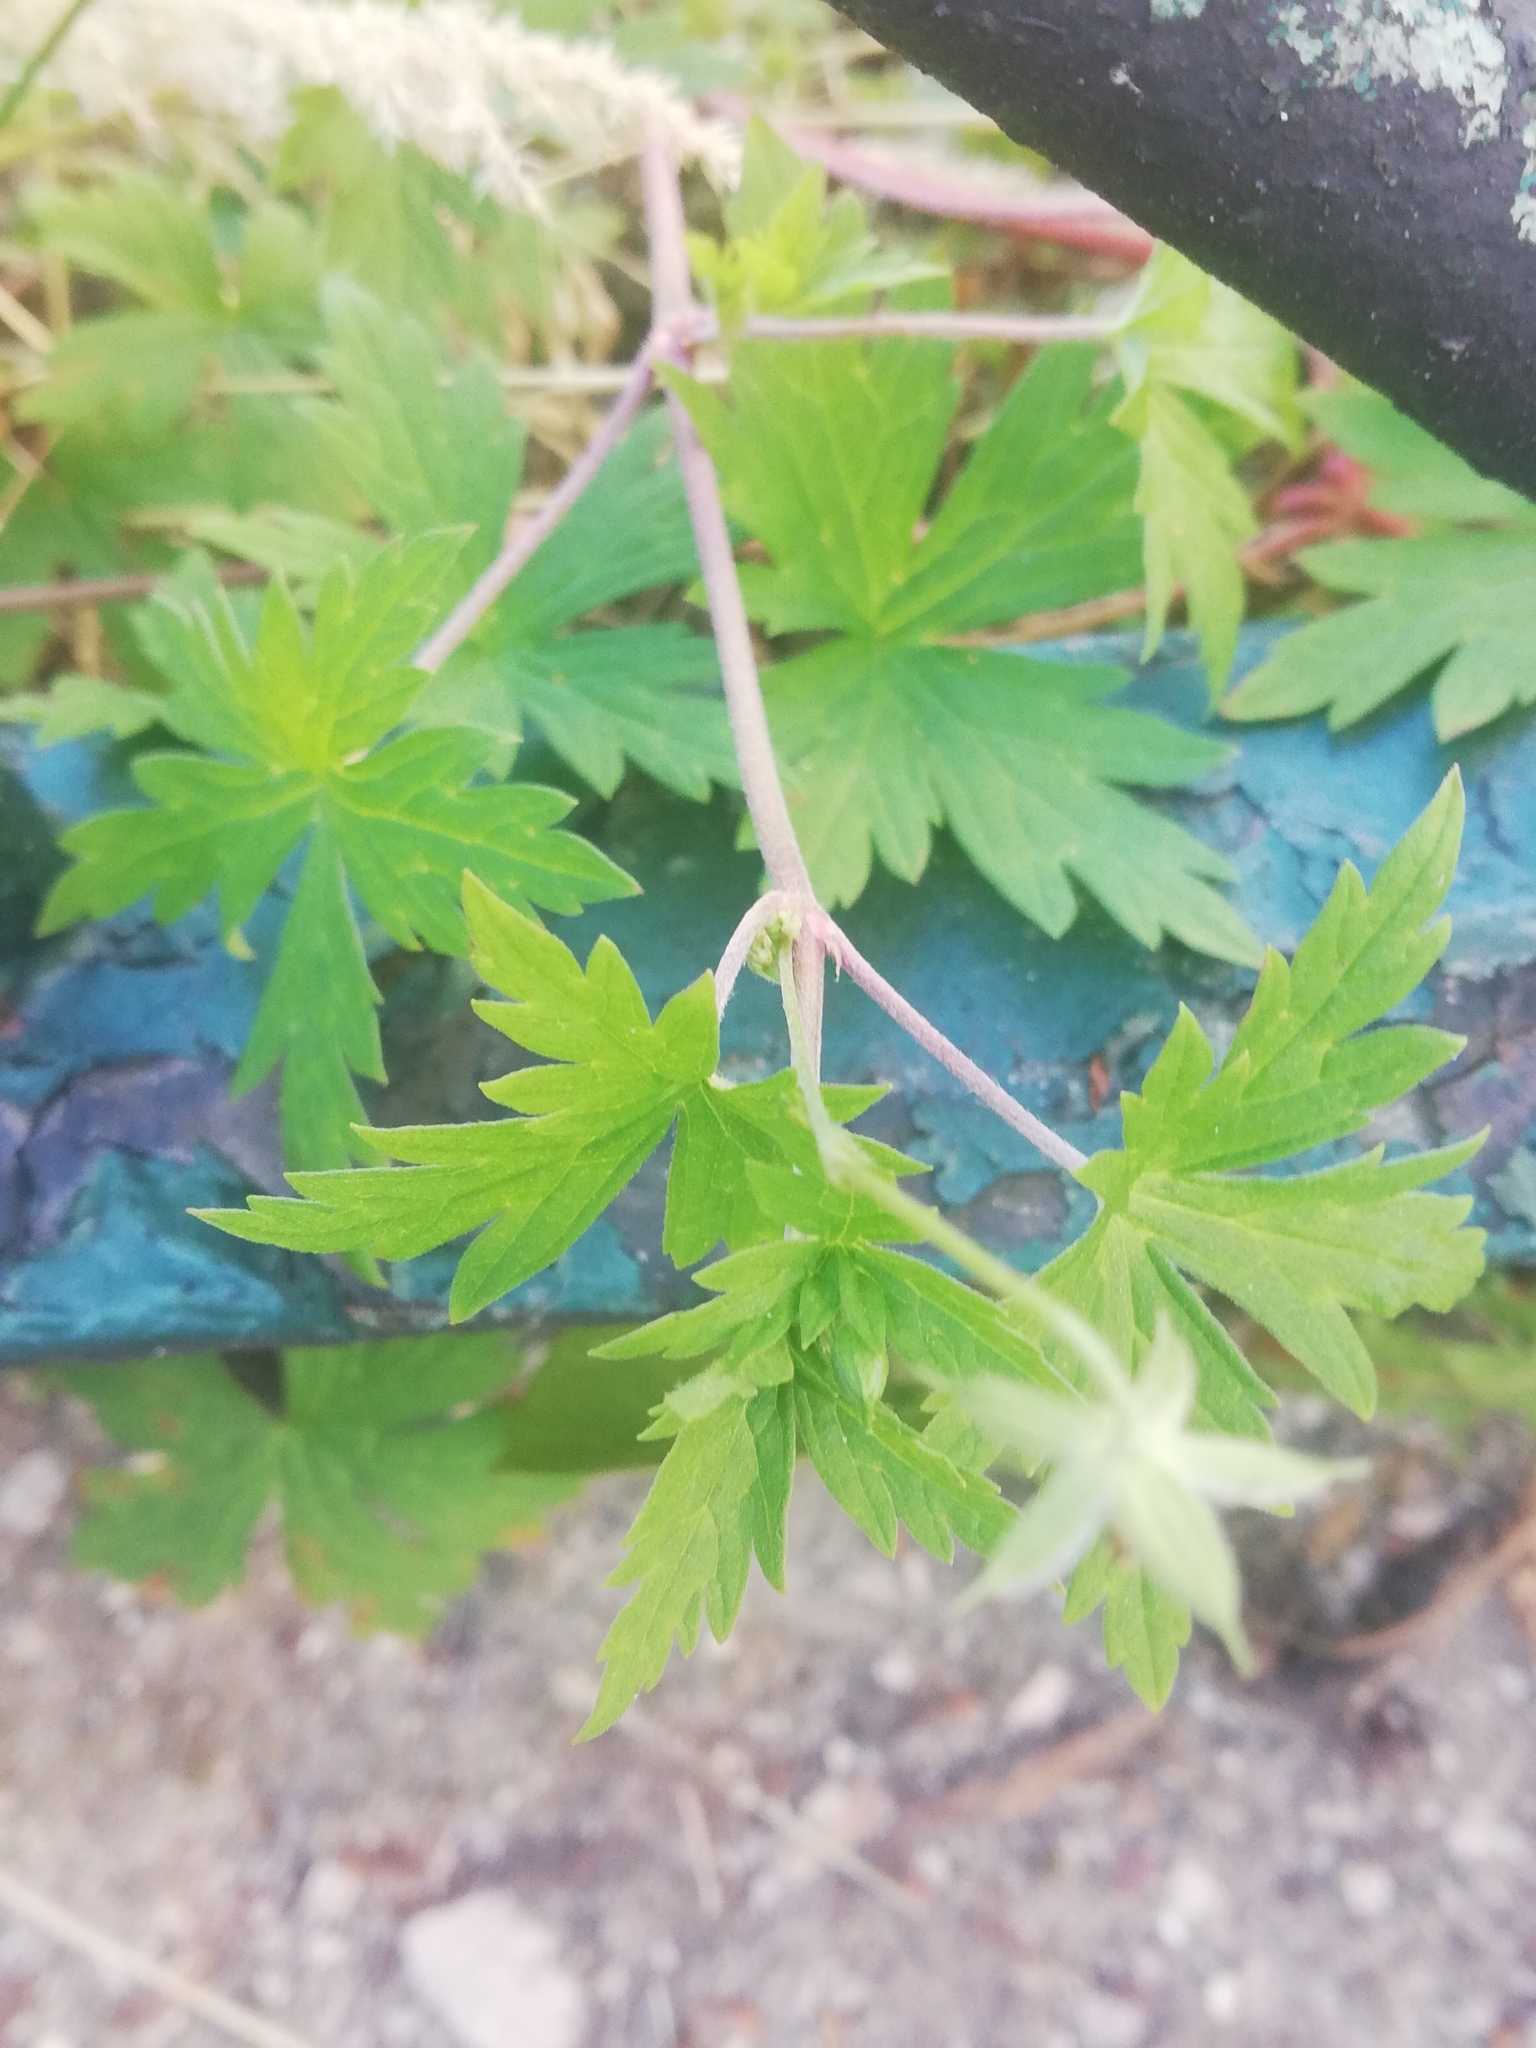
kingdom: Plantae
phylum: Tracheophyta
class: Magnoliopsida
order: Geraniales
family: Geraniaceae
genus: Geranium
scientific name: Geranium sibiricum
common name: Siberian crane's-bill
